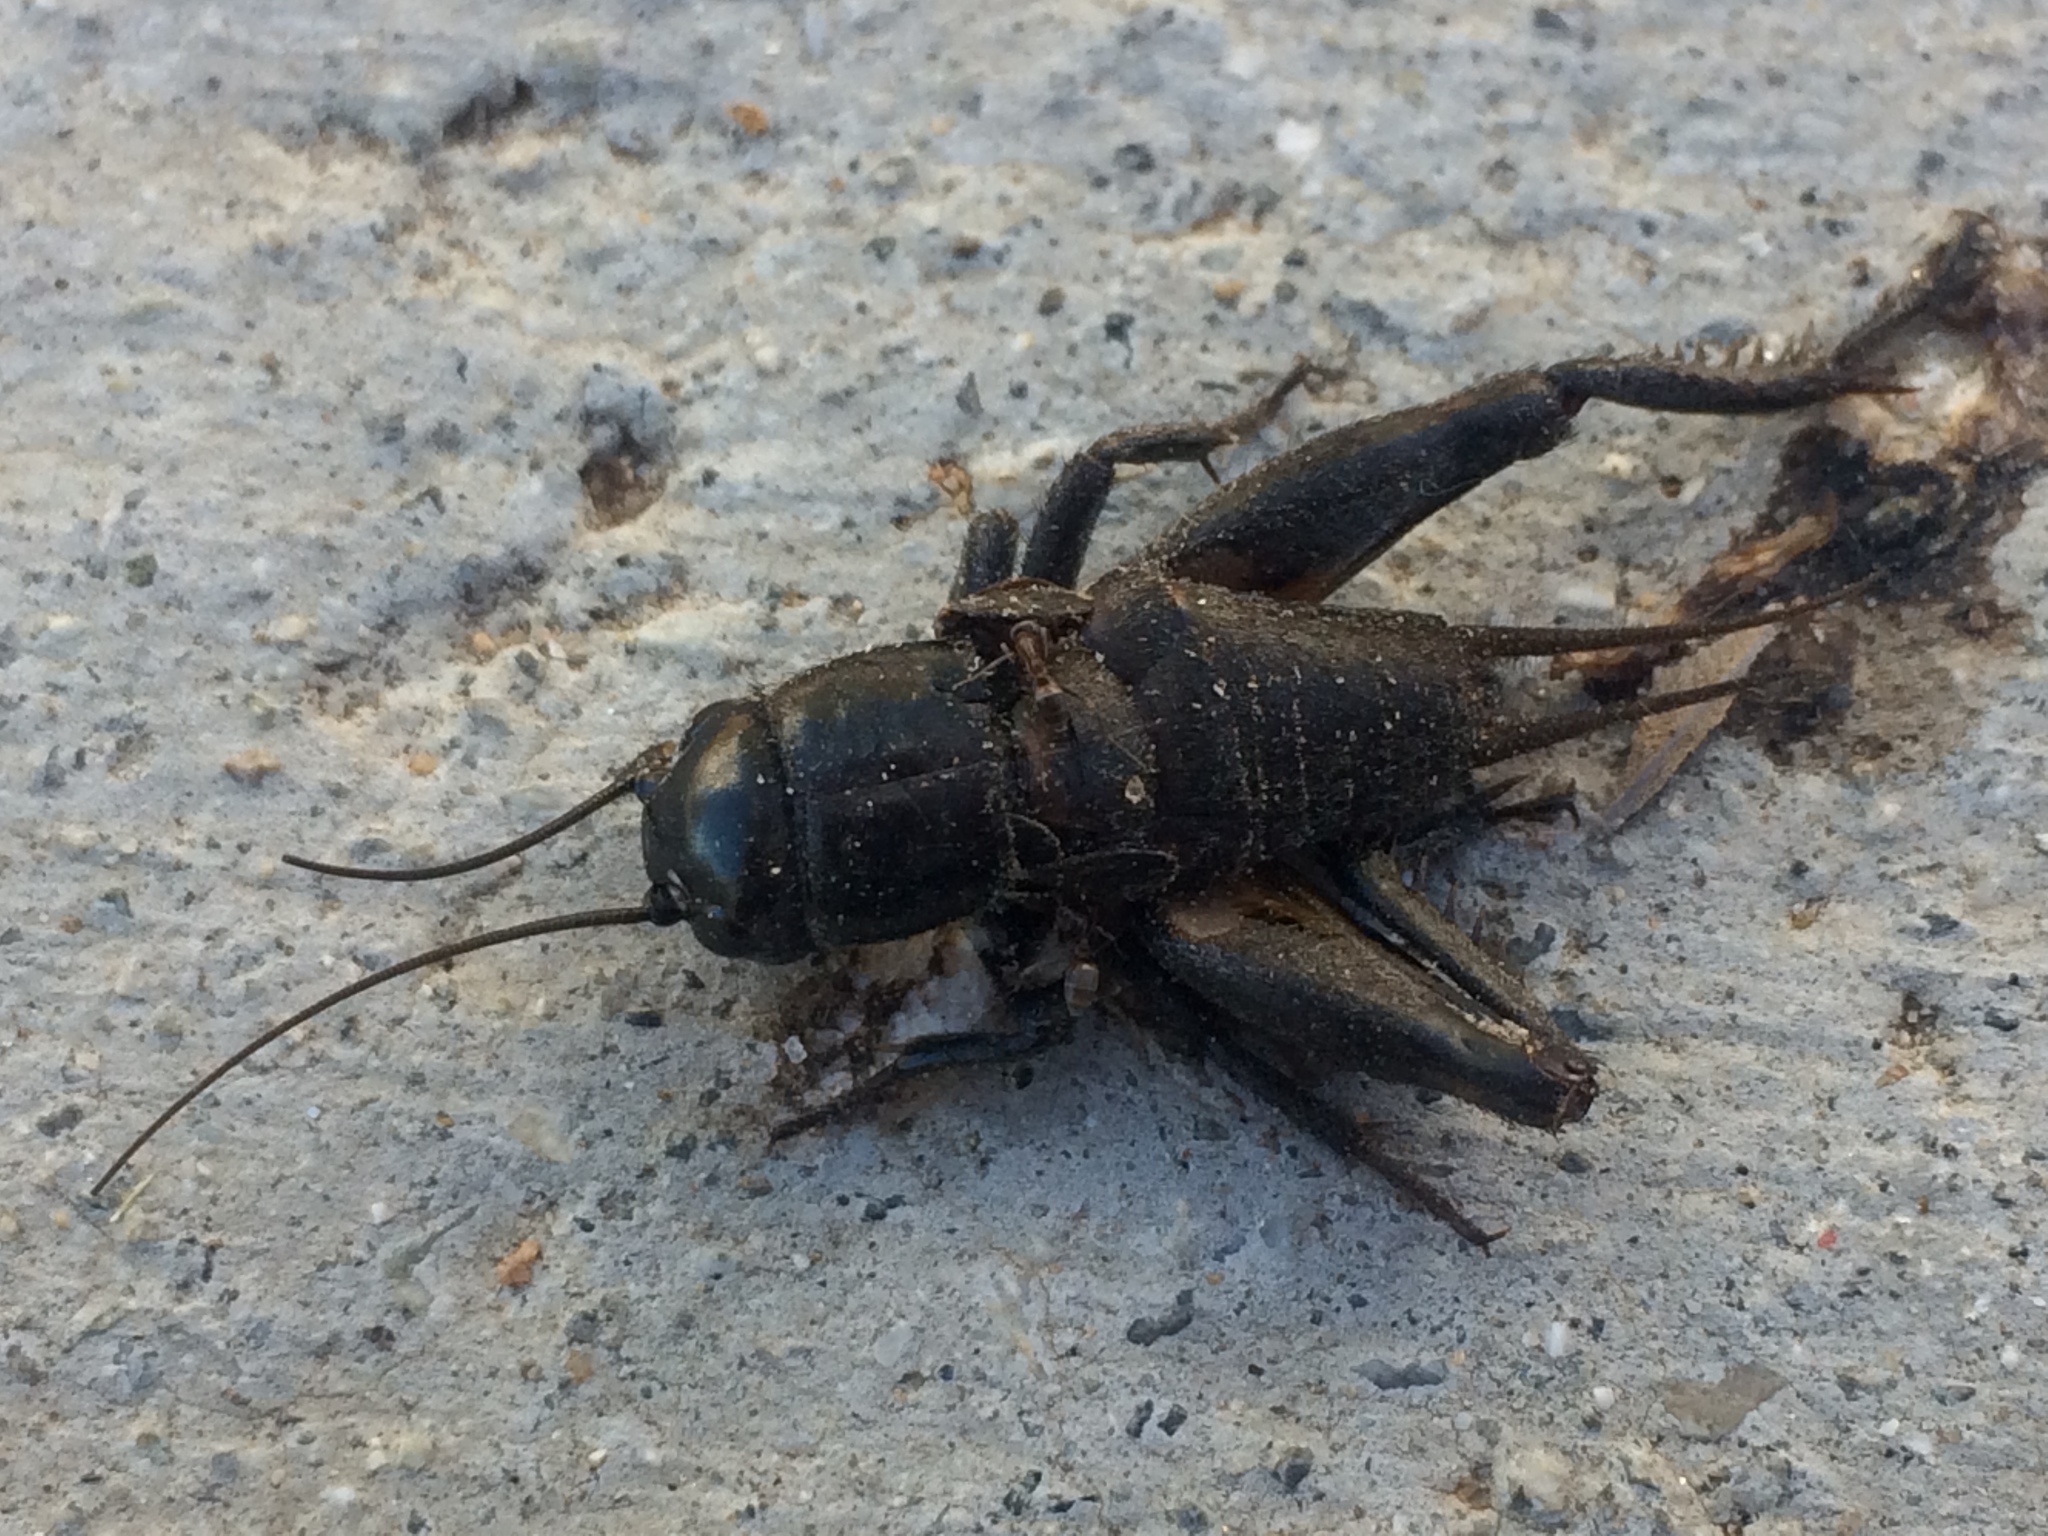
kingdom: Animalia
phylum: Arthropoda
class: Insecta
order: Orthoptera
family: Gryllidae
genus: Gryllus
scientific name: Gryllus
